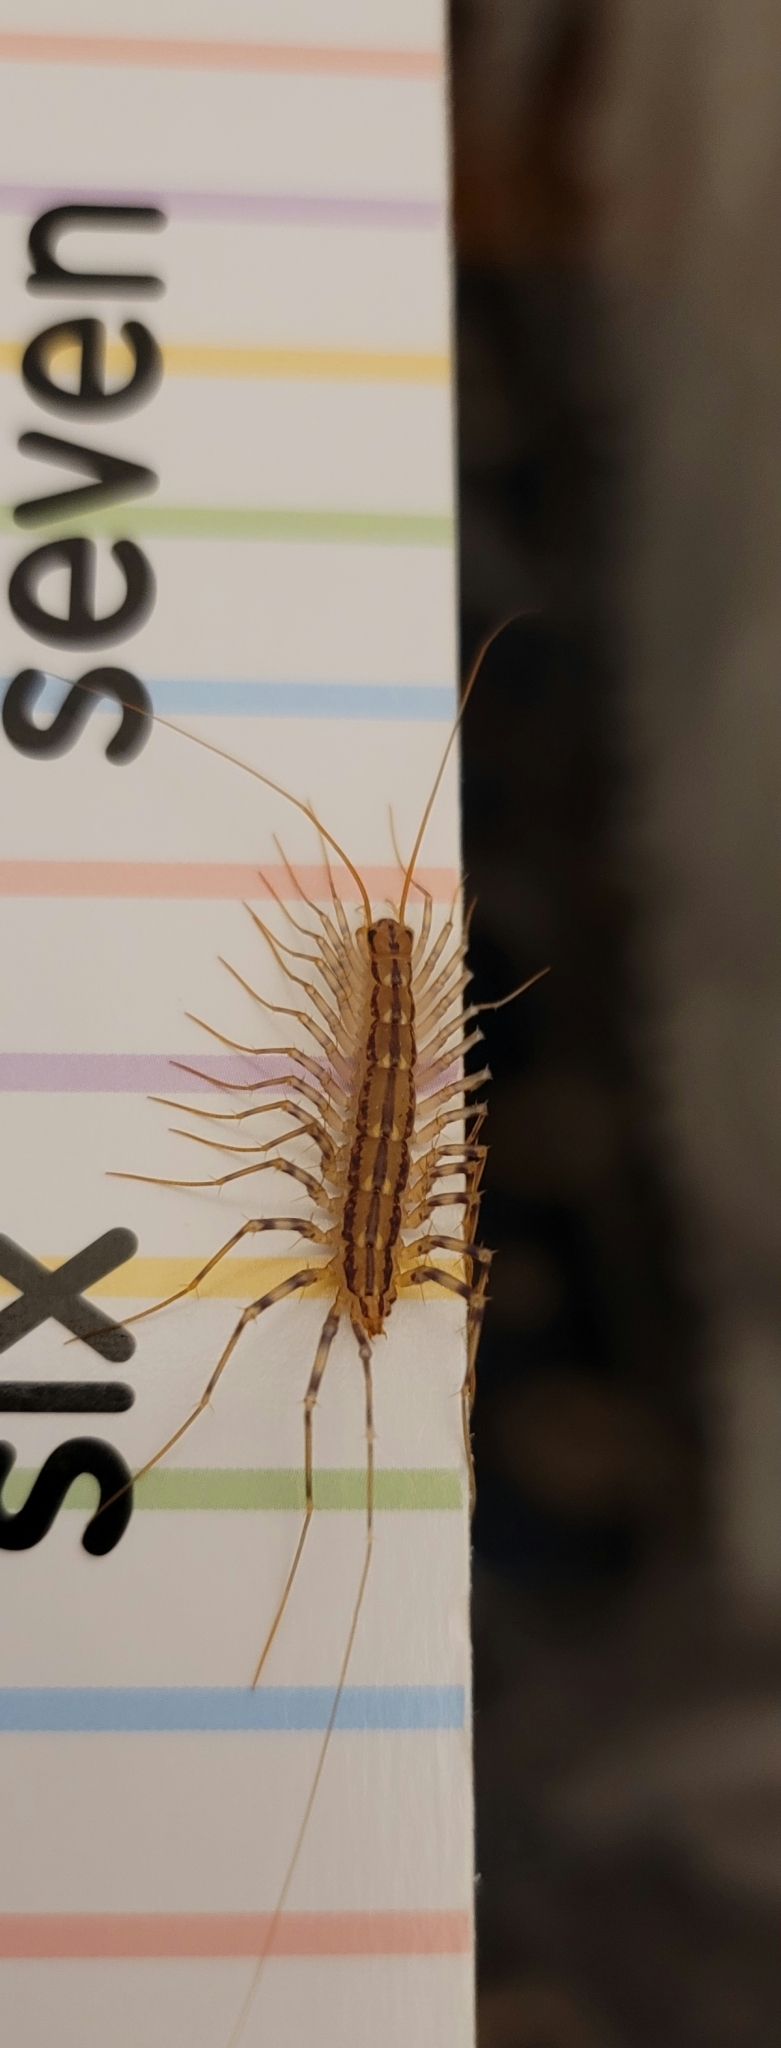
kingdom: Animalia
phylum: Arthropoda
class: Chilopoda
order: Scutigeromorpha
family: Scutigeridae
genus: Scutigera
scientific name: Scutigera coleoptrata
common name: House centipede
